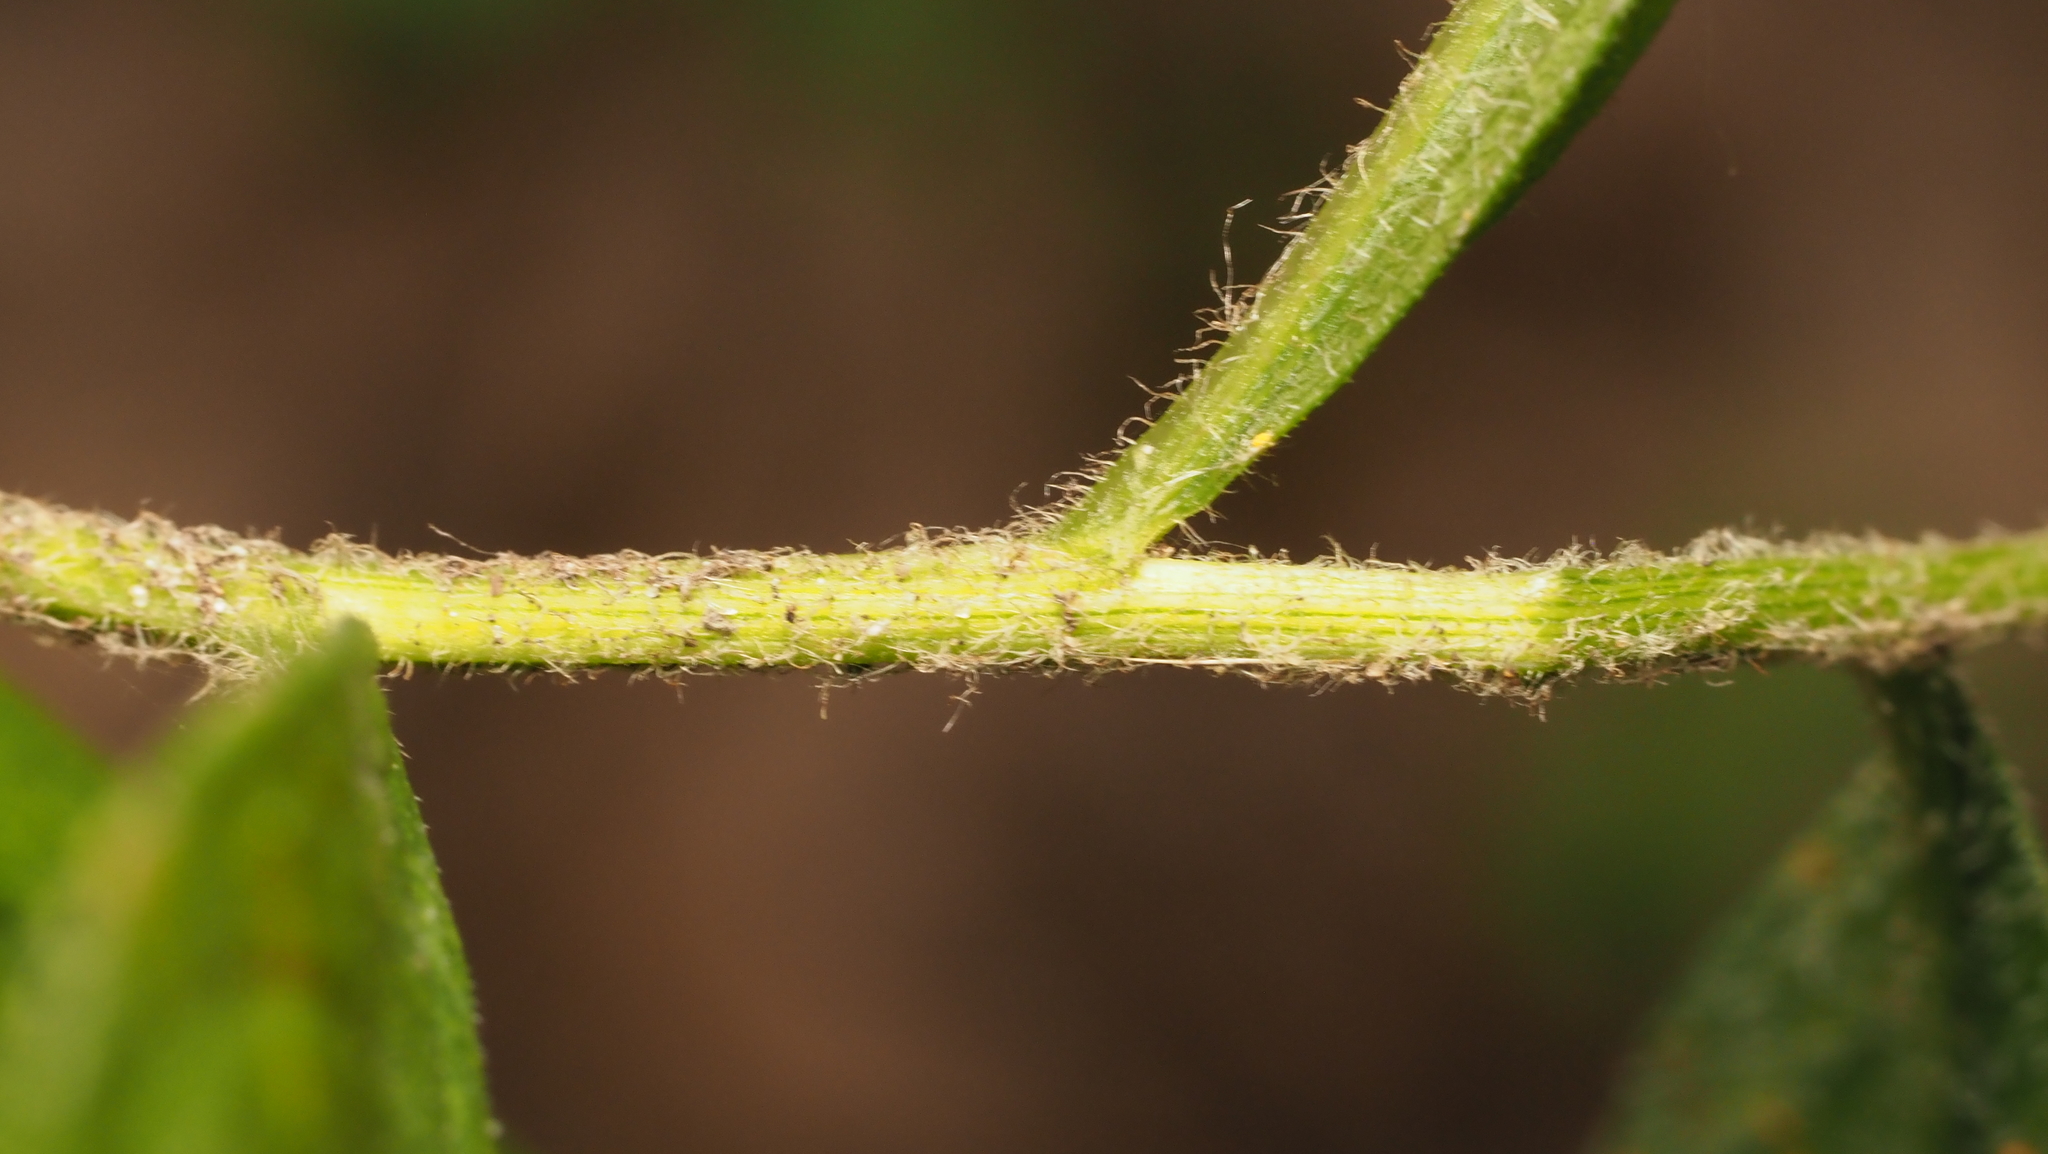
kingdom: Plantae
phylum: Tracheophyta
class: Magnoliopsida
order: Asterales
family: Asteraceae
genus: Solidago
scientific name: Solidago rugosa
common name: Rough-stemmed goldenrod
